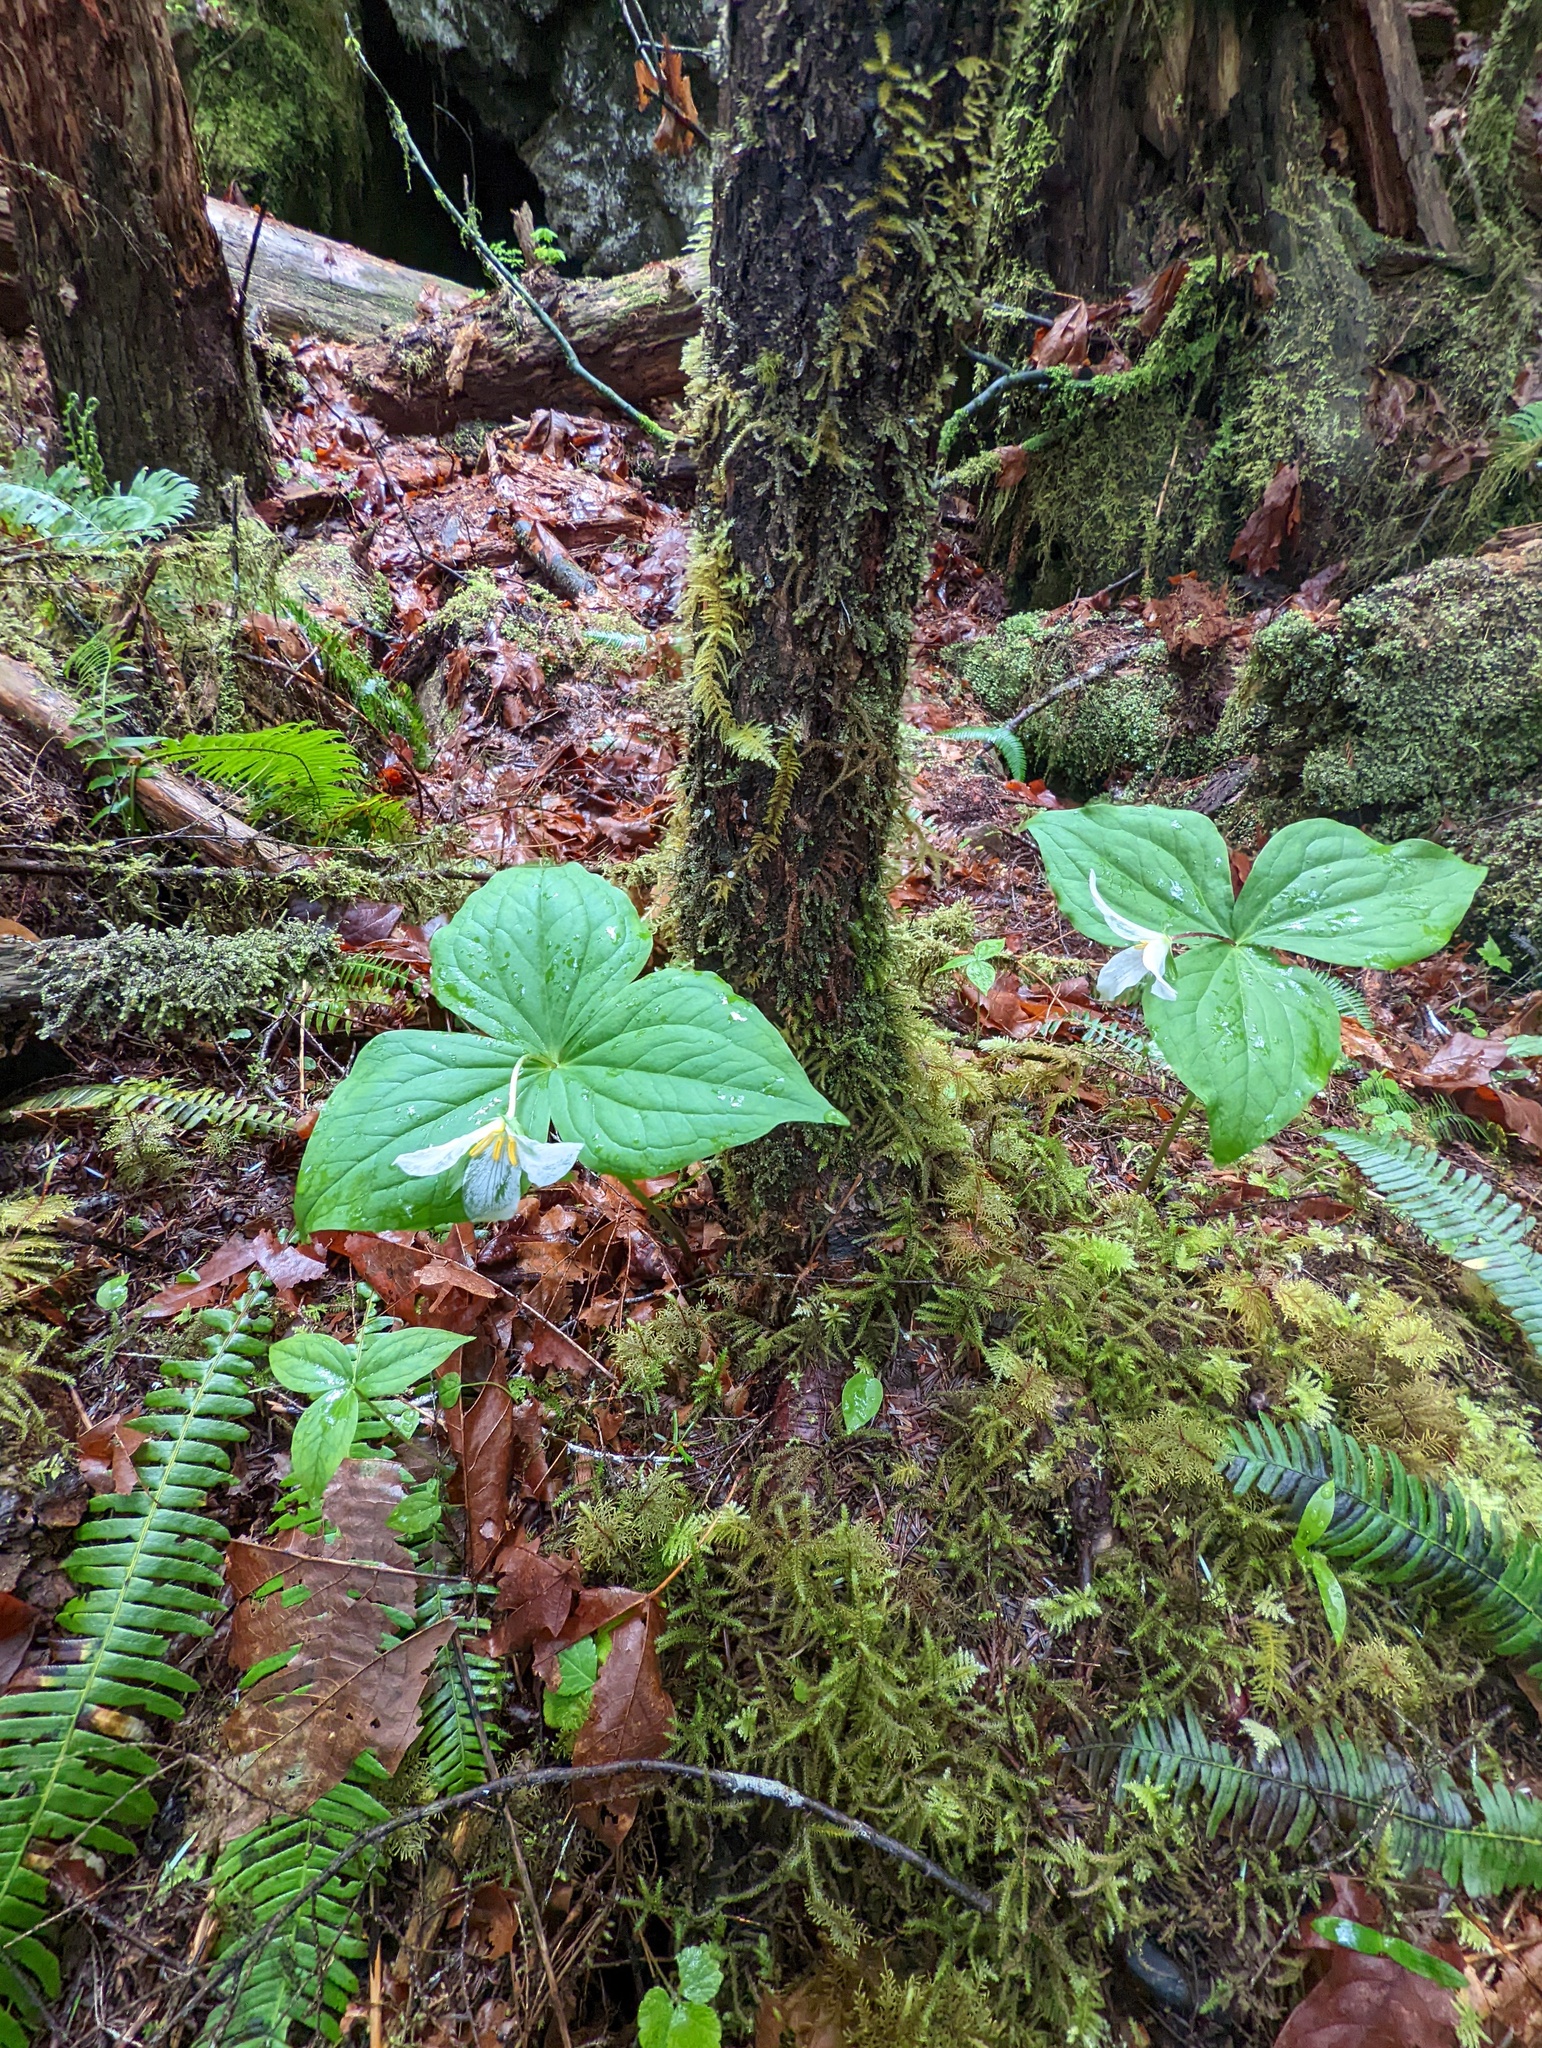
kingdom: Plantae
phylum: Tracheophyta
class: Liliopsida
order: Liliales
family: Melanthiaceae
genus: Trillium
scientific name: Trillium ovatum
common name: Pacific trillium
